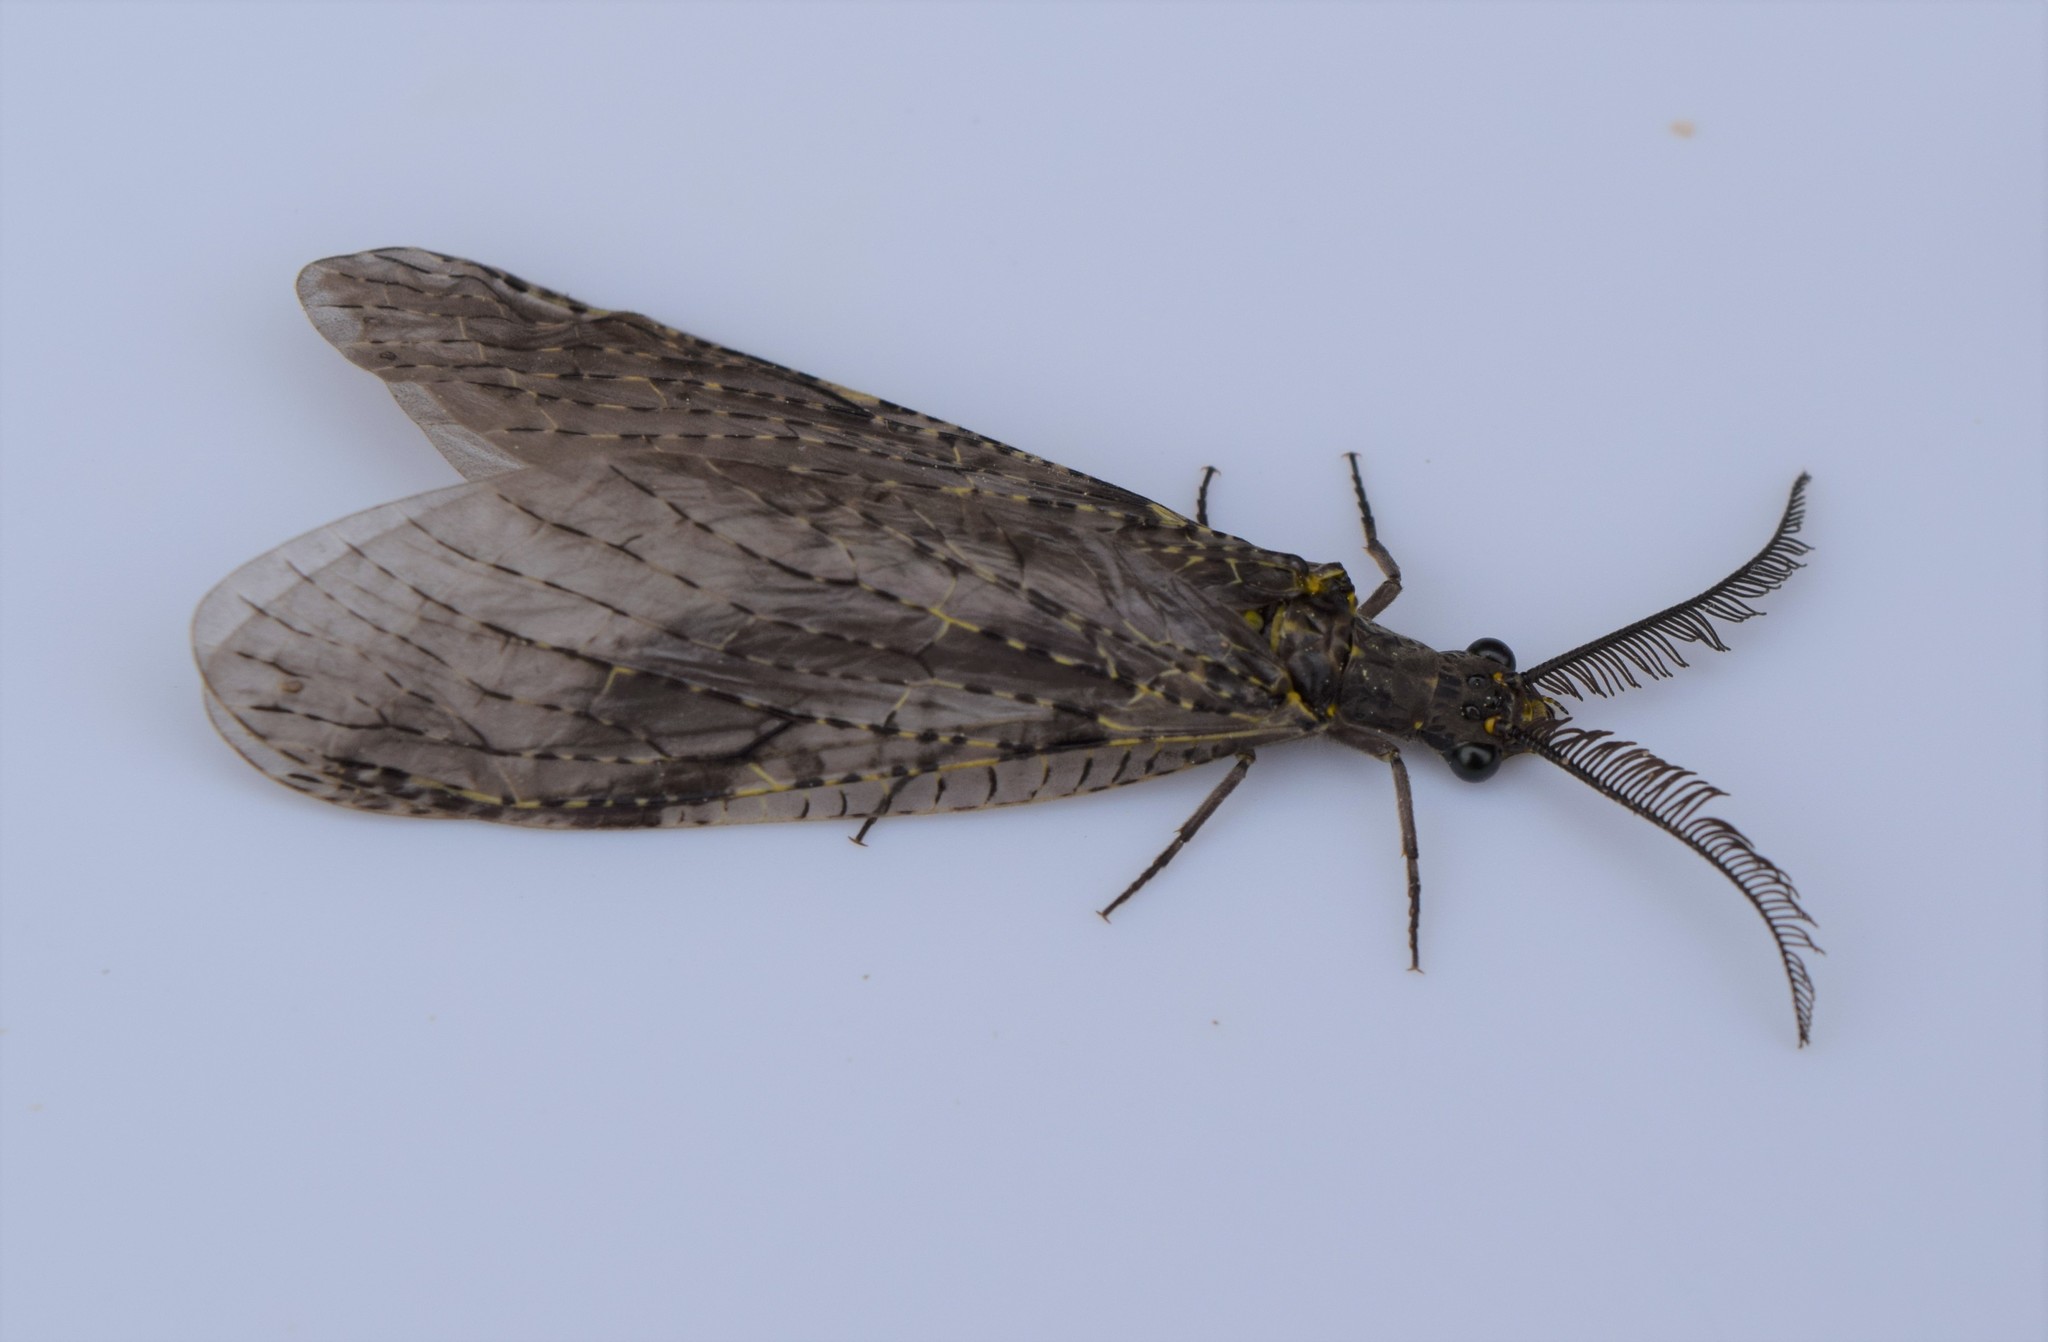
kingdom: Animalia
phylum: Arthropoda
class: Insecta
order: Megaloptera
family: Corydalidae
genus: Chauliodes
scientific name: Chauliodes rastricornis
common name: Spring fishfly
